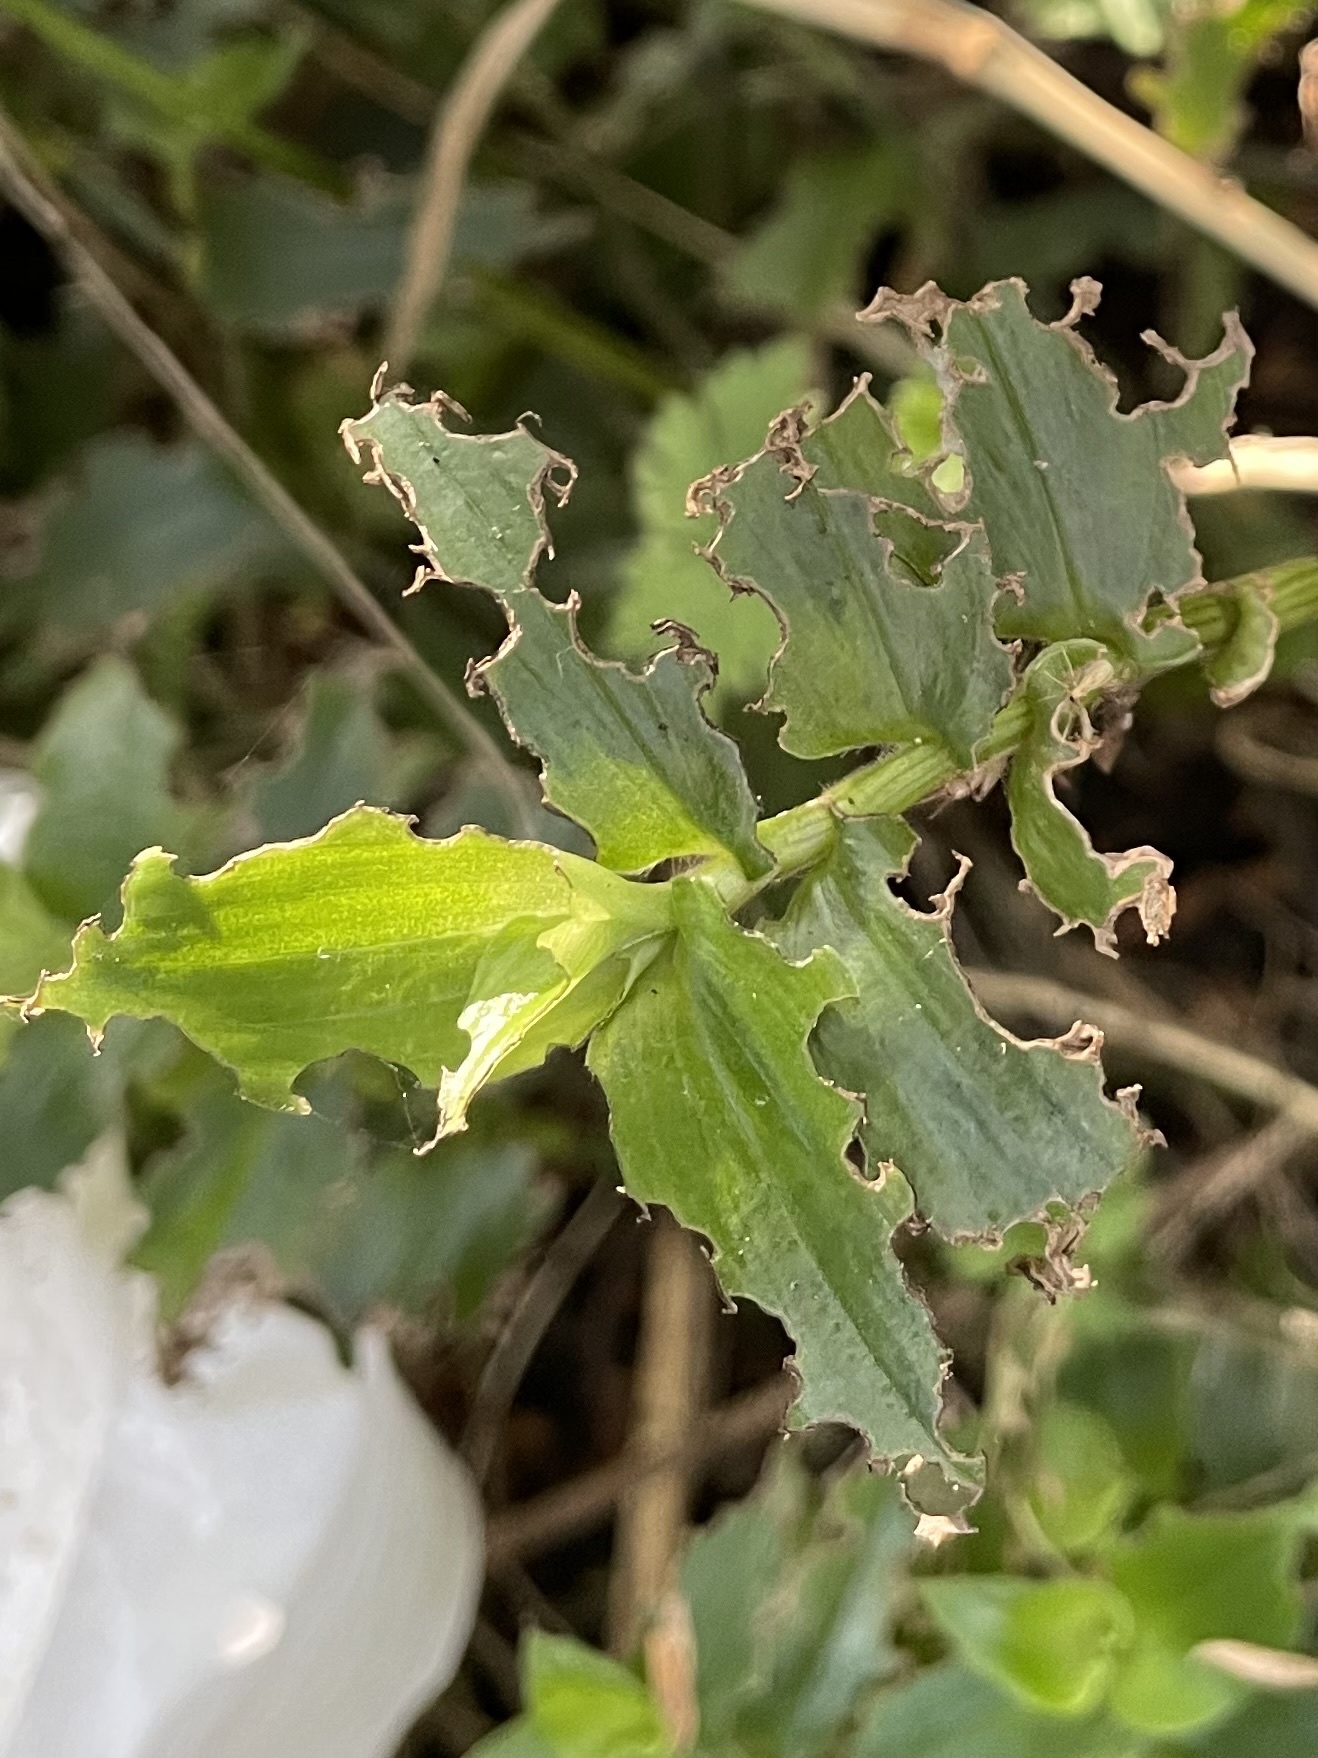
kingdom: Animalia
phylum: Arthropoda
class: Insecta
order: Coleoptera
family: Chrysomelidae
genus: Neolema
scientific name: Neolema ogloblini
